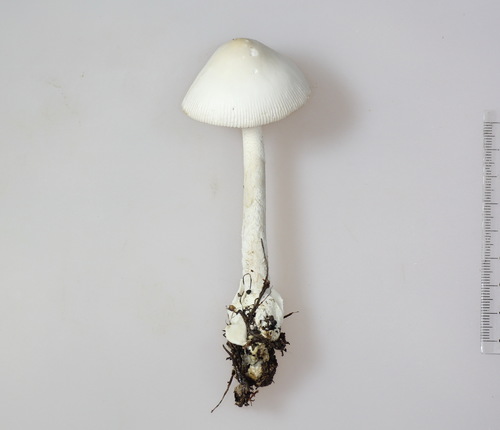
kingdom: Fungi
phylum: Basidiomycota
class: Agaricomycetes
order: Agaricales
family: Amanitaceae
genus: Amanita
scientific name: Amanita vaginata
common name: Grisette
